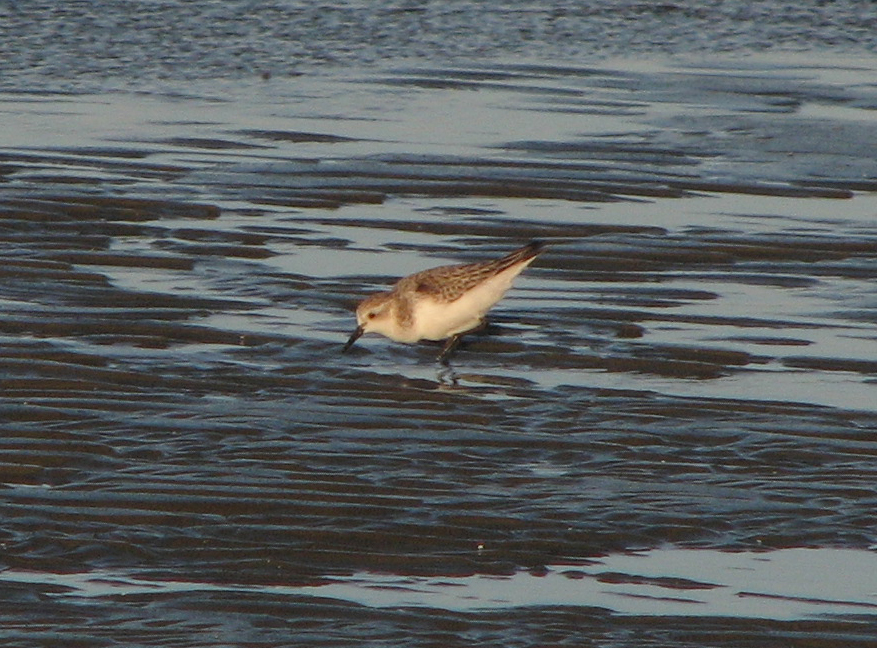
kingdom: Animalia
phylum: Chordata
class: Aves
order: Charadriiformes
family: Scolopacidae
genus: Calidris
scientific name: Calidris ruficollis
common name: Red-necked stint
